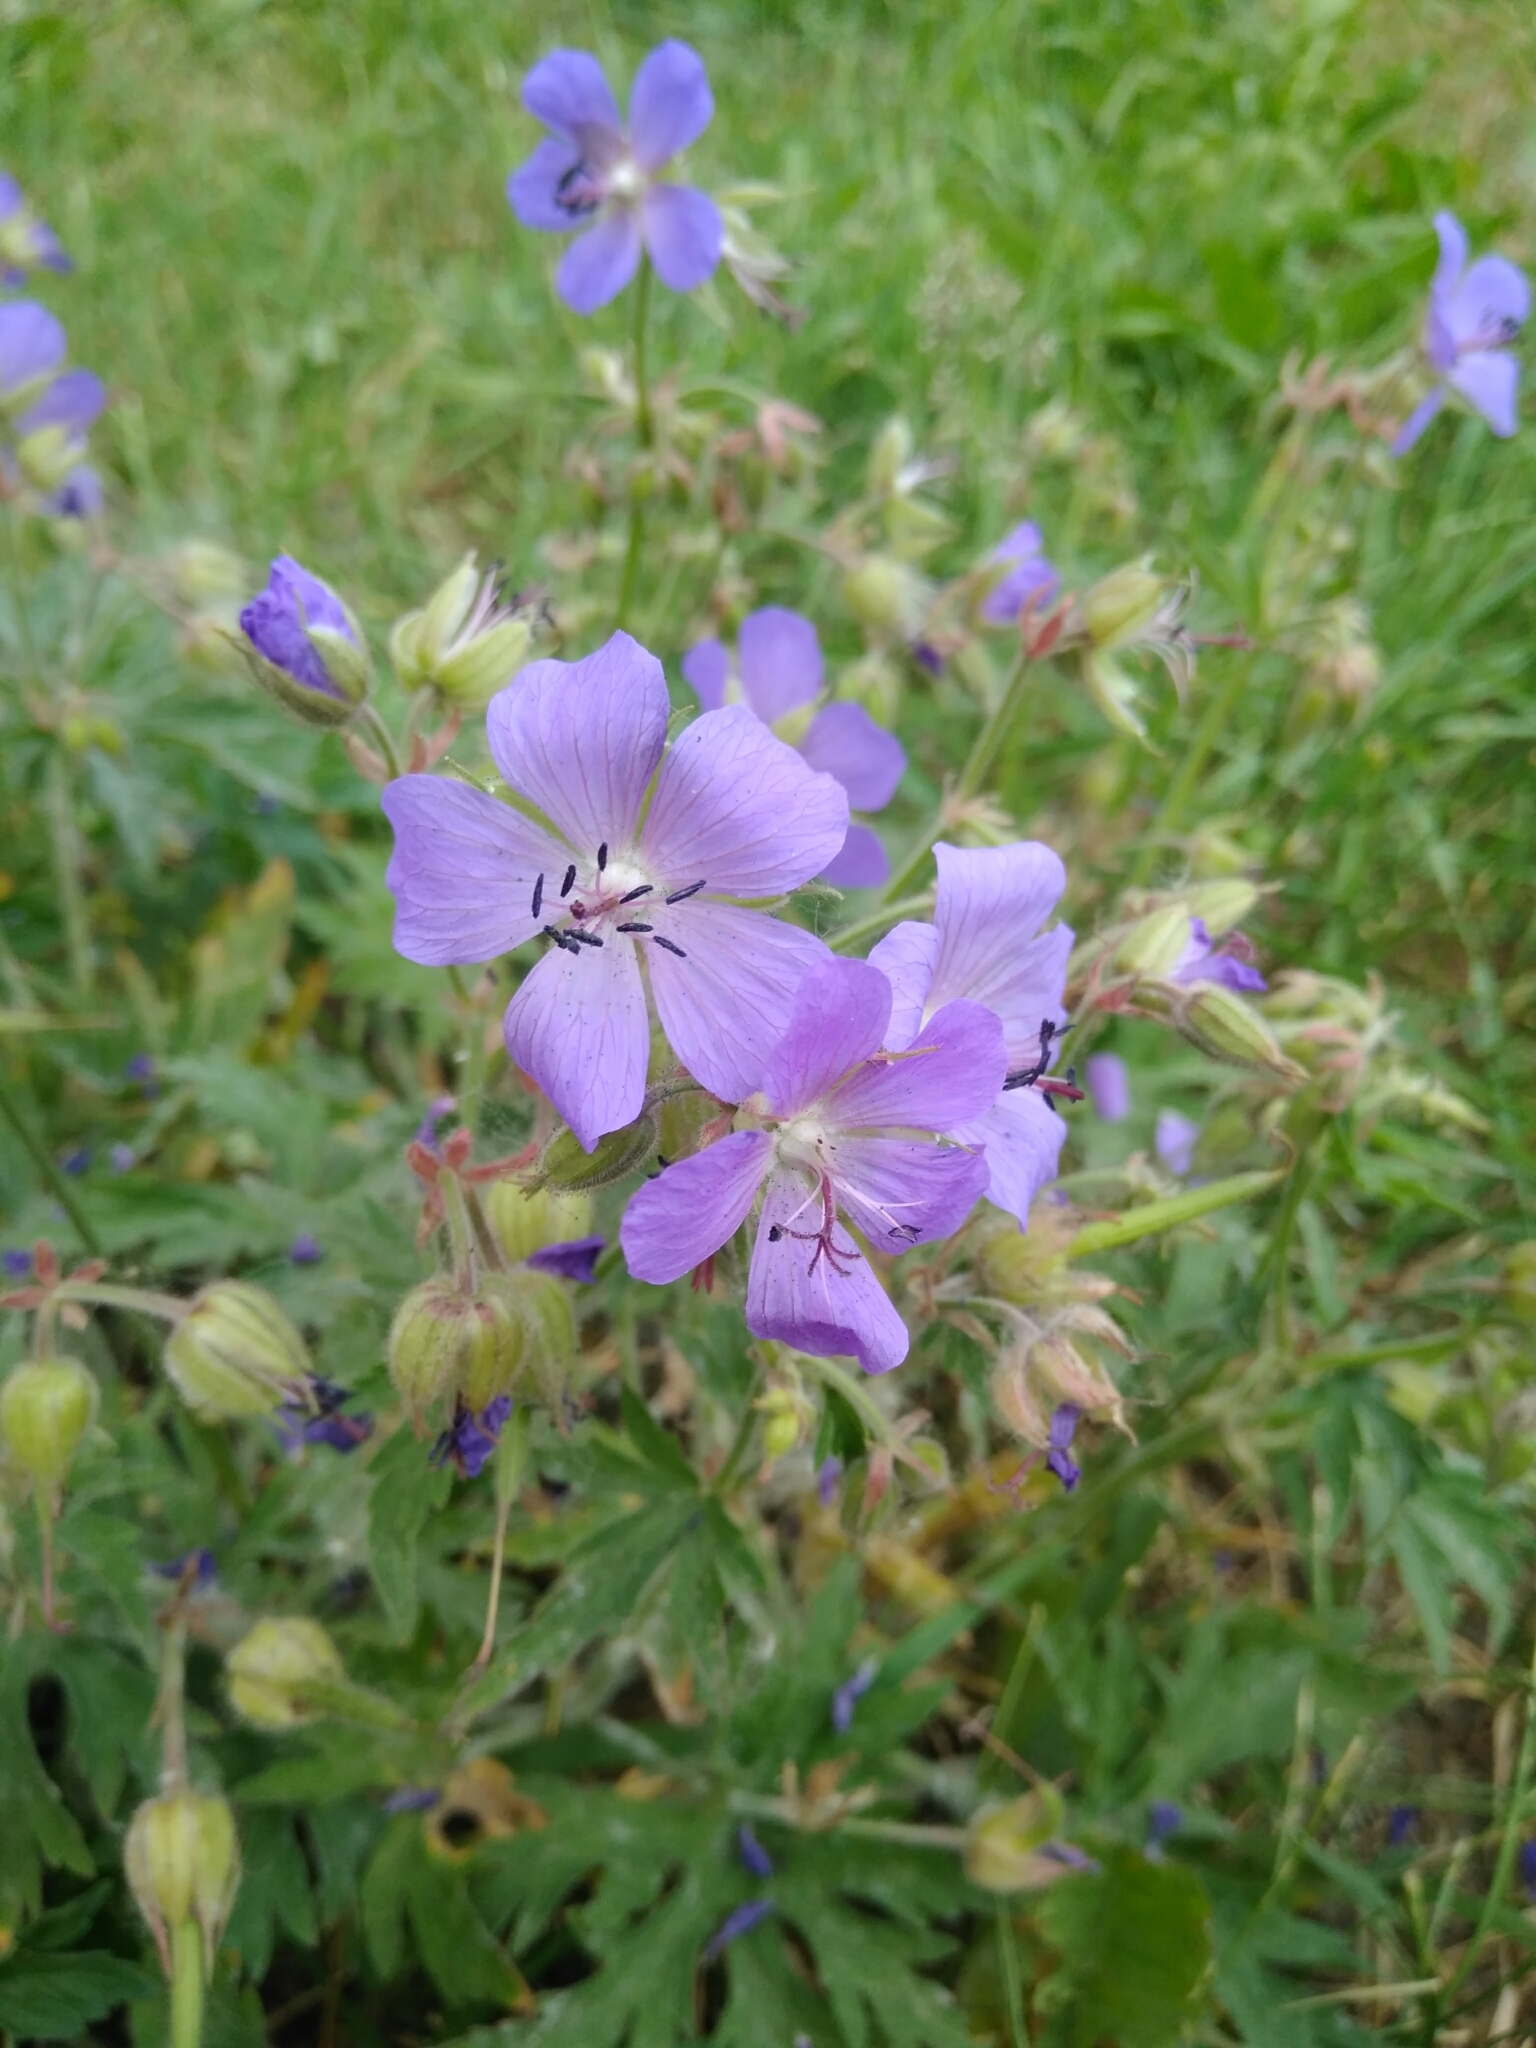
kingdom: Plantae
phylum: Tracheophyta
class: Magnoliopsida
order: Geraniales
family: Geraniaceae
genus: Geranium
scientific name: Geranium pratense
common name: Meadow crane's-bill
